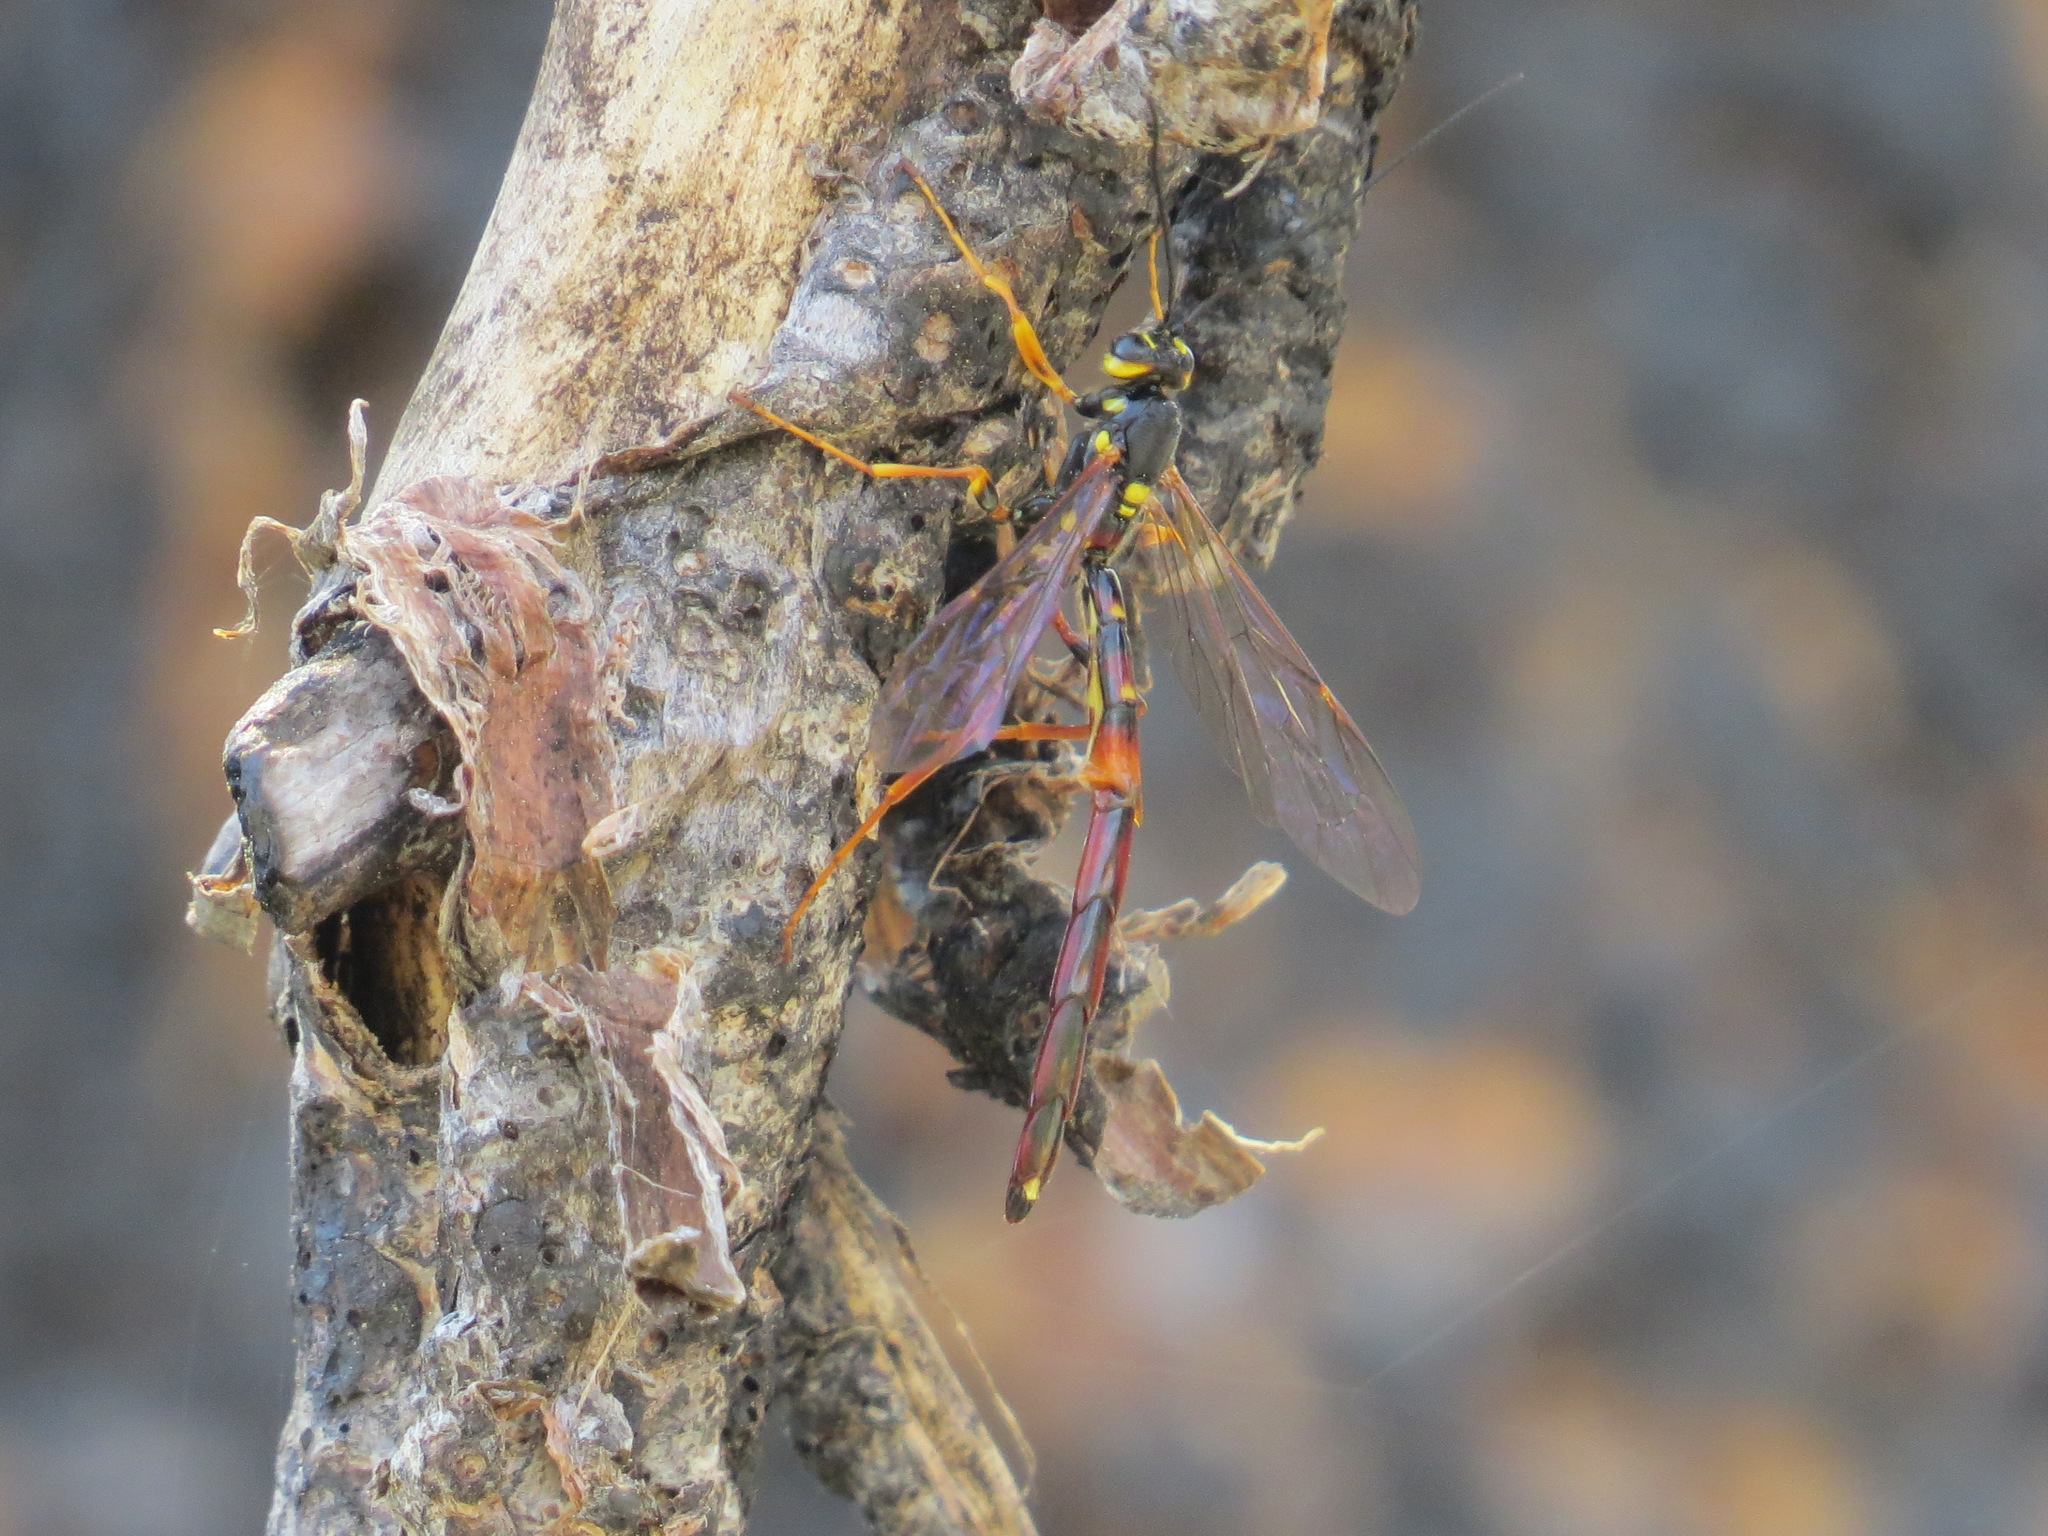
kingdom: Animalia
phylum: Arthropoda
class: Insecta
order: Hymenoptera
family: Ichneumonidae
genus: Megarhyssa
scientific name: Megarhyssa nortoni
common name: Norton's giant ichneumonid wasp
